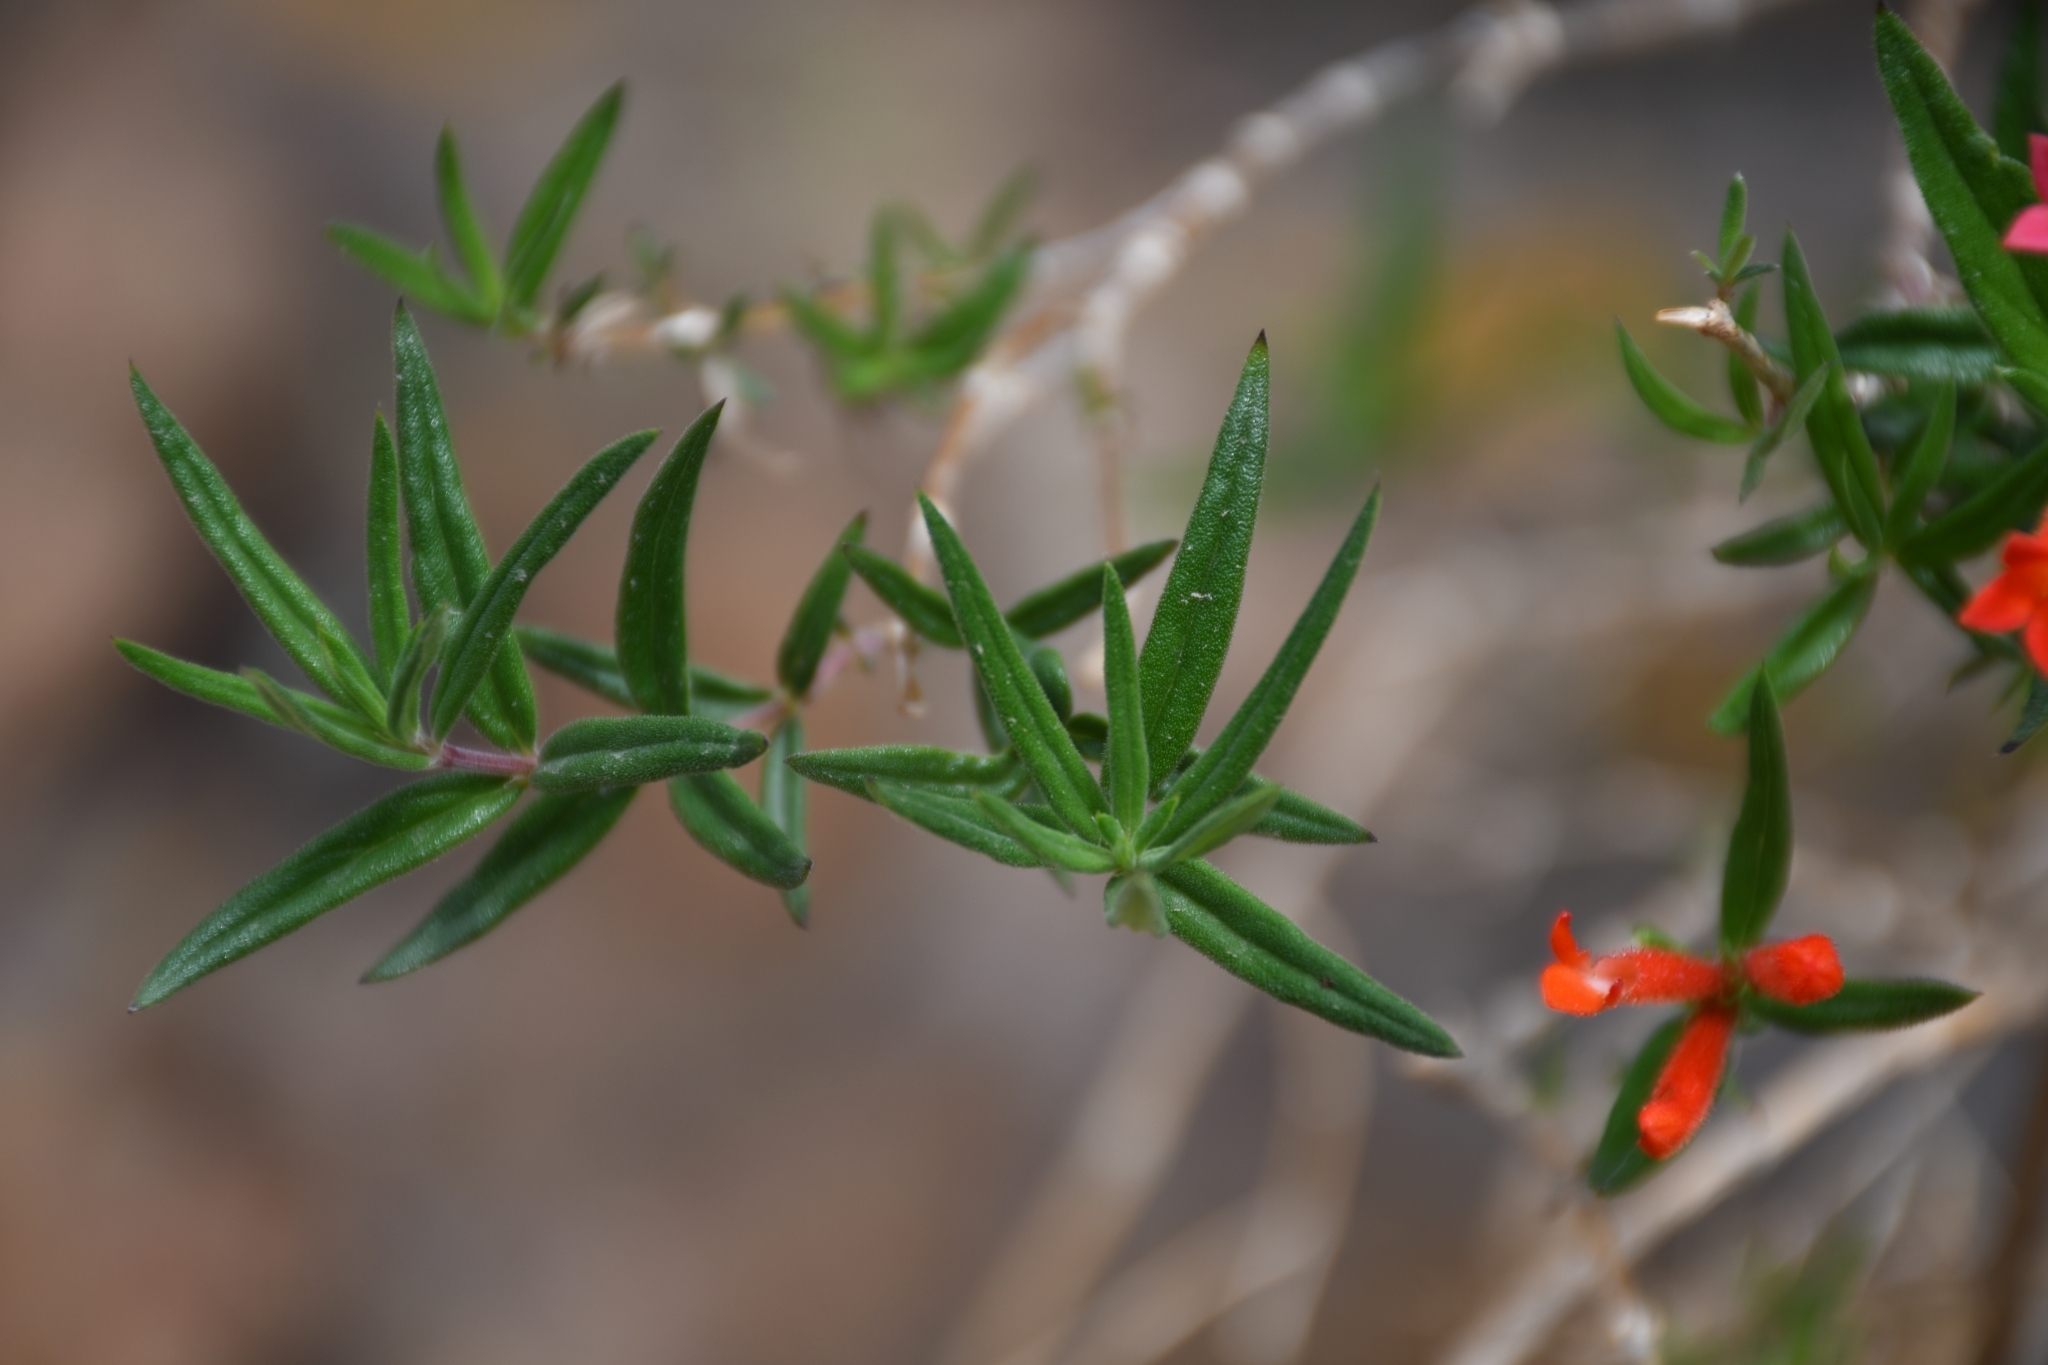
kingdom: Plantae
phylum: Tracheophyta
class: Magnoliopsida
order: Gentianales
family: Rubiaceae
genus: Bouvardia
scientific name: Bouvardia ternifolia
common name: Scarlet bouvardia
